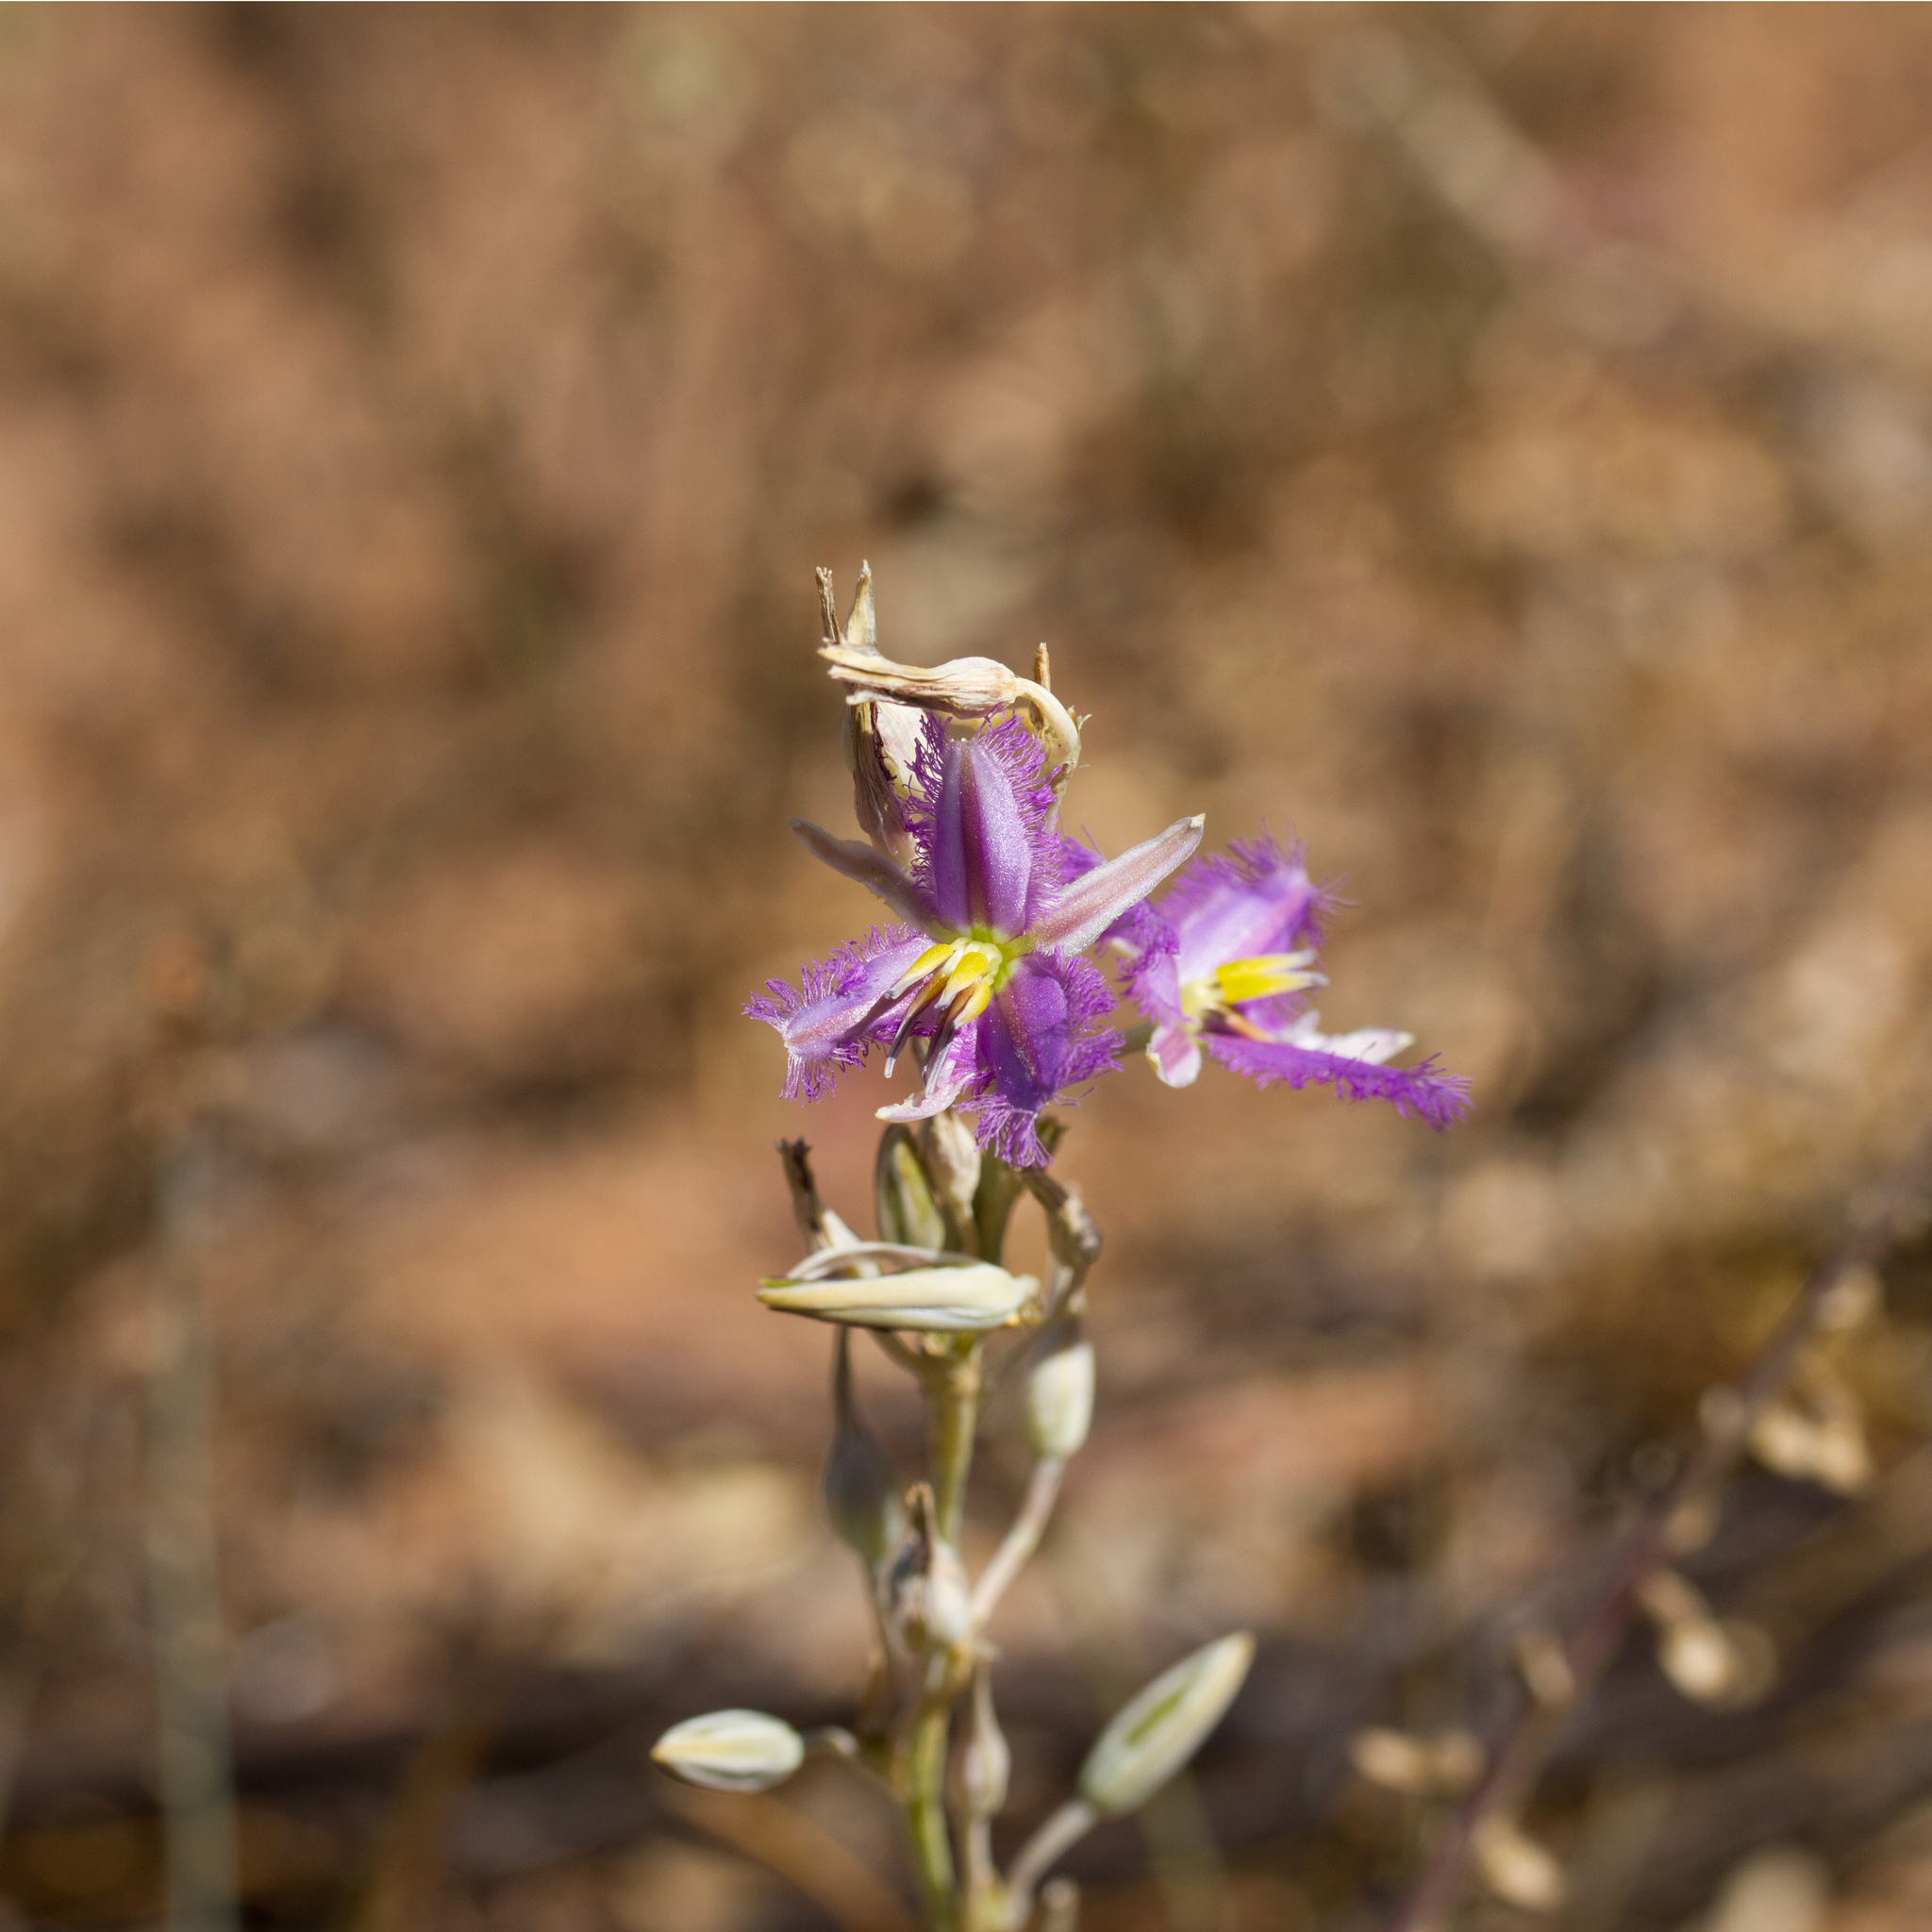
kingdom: Plantae
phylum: Tracheophyta
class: Liliopsida
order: Asparagales
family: Asparagaceae
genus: Thysanotus
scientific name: Thysanotus baueri
